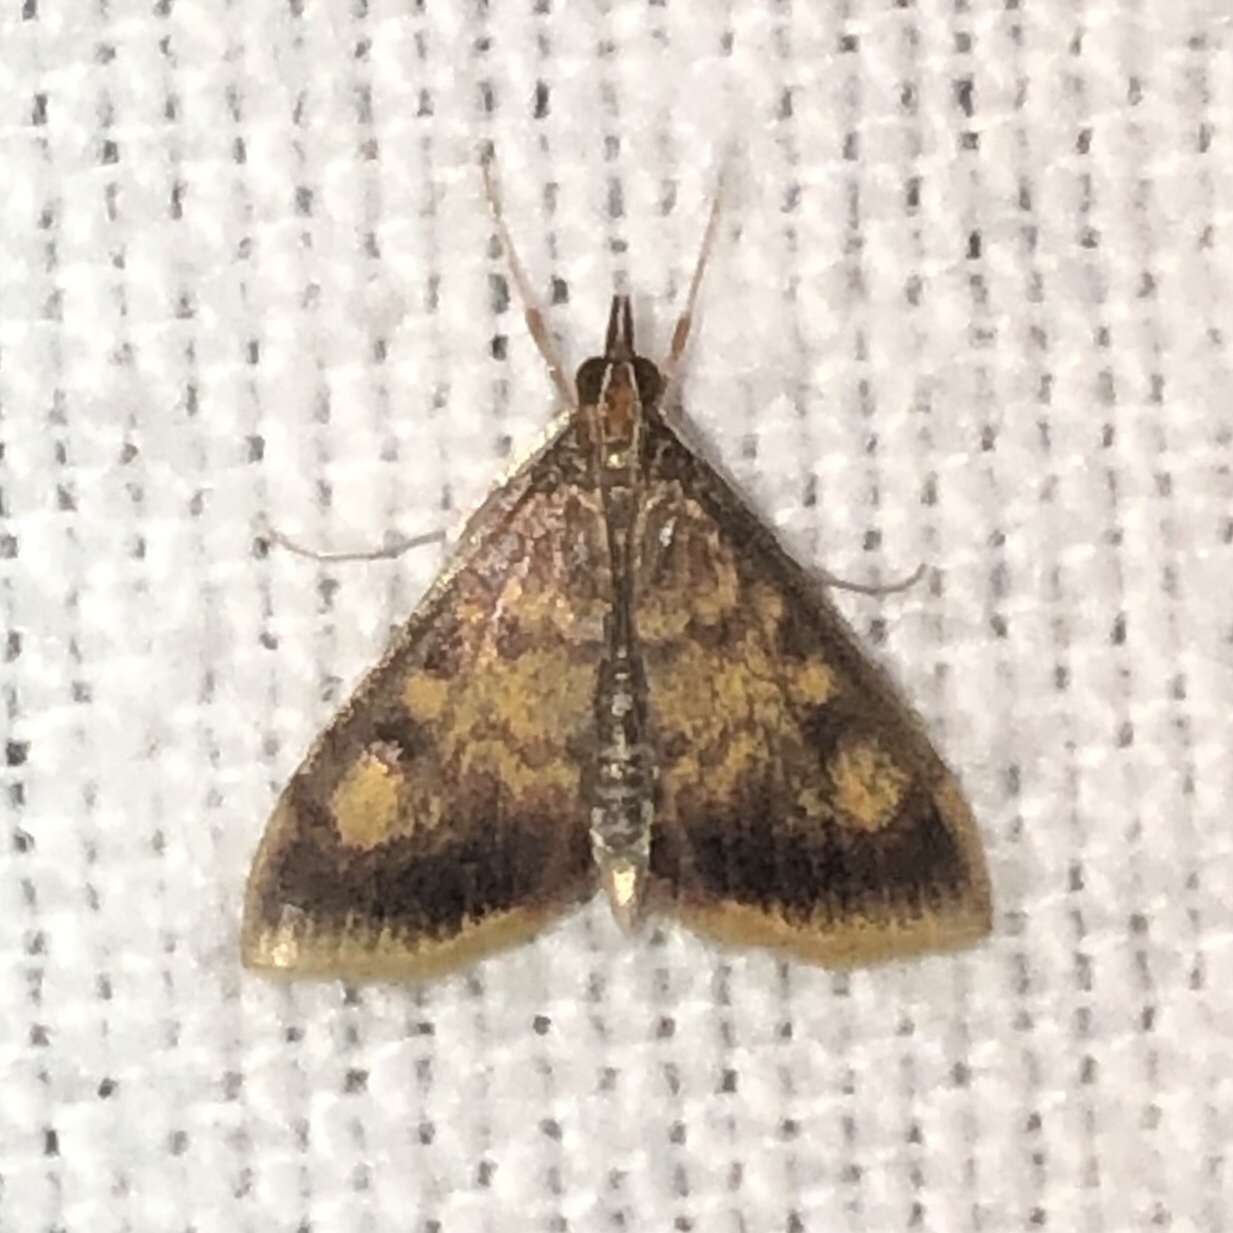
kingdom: Animalia
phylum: Arthropoda
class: Insecta
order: Lepidoptera
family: Crambidae
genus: Pyrausta
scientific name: Pyrausta acrionalis
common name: Mint-loving pyrausta moth
